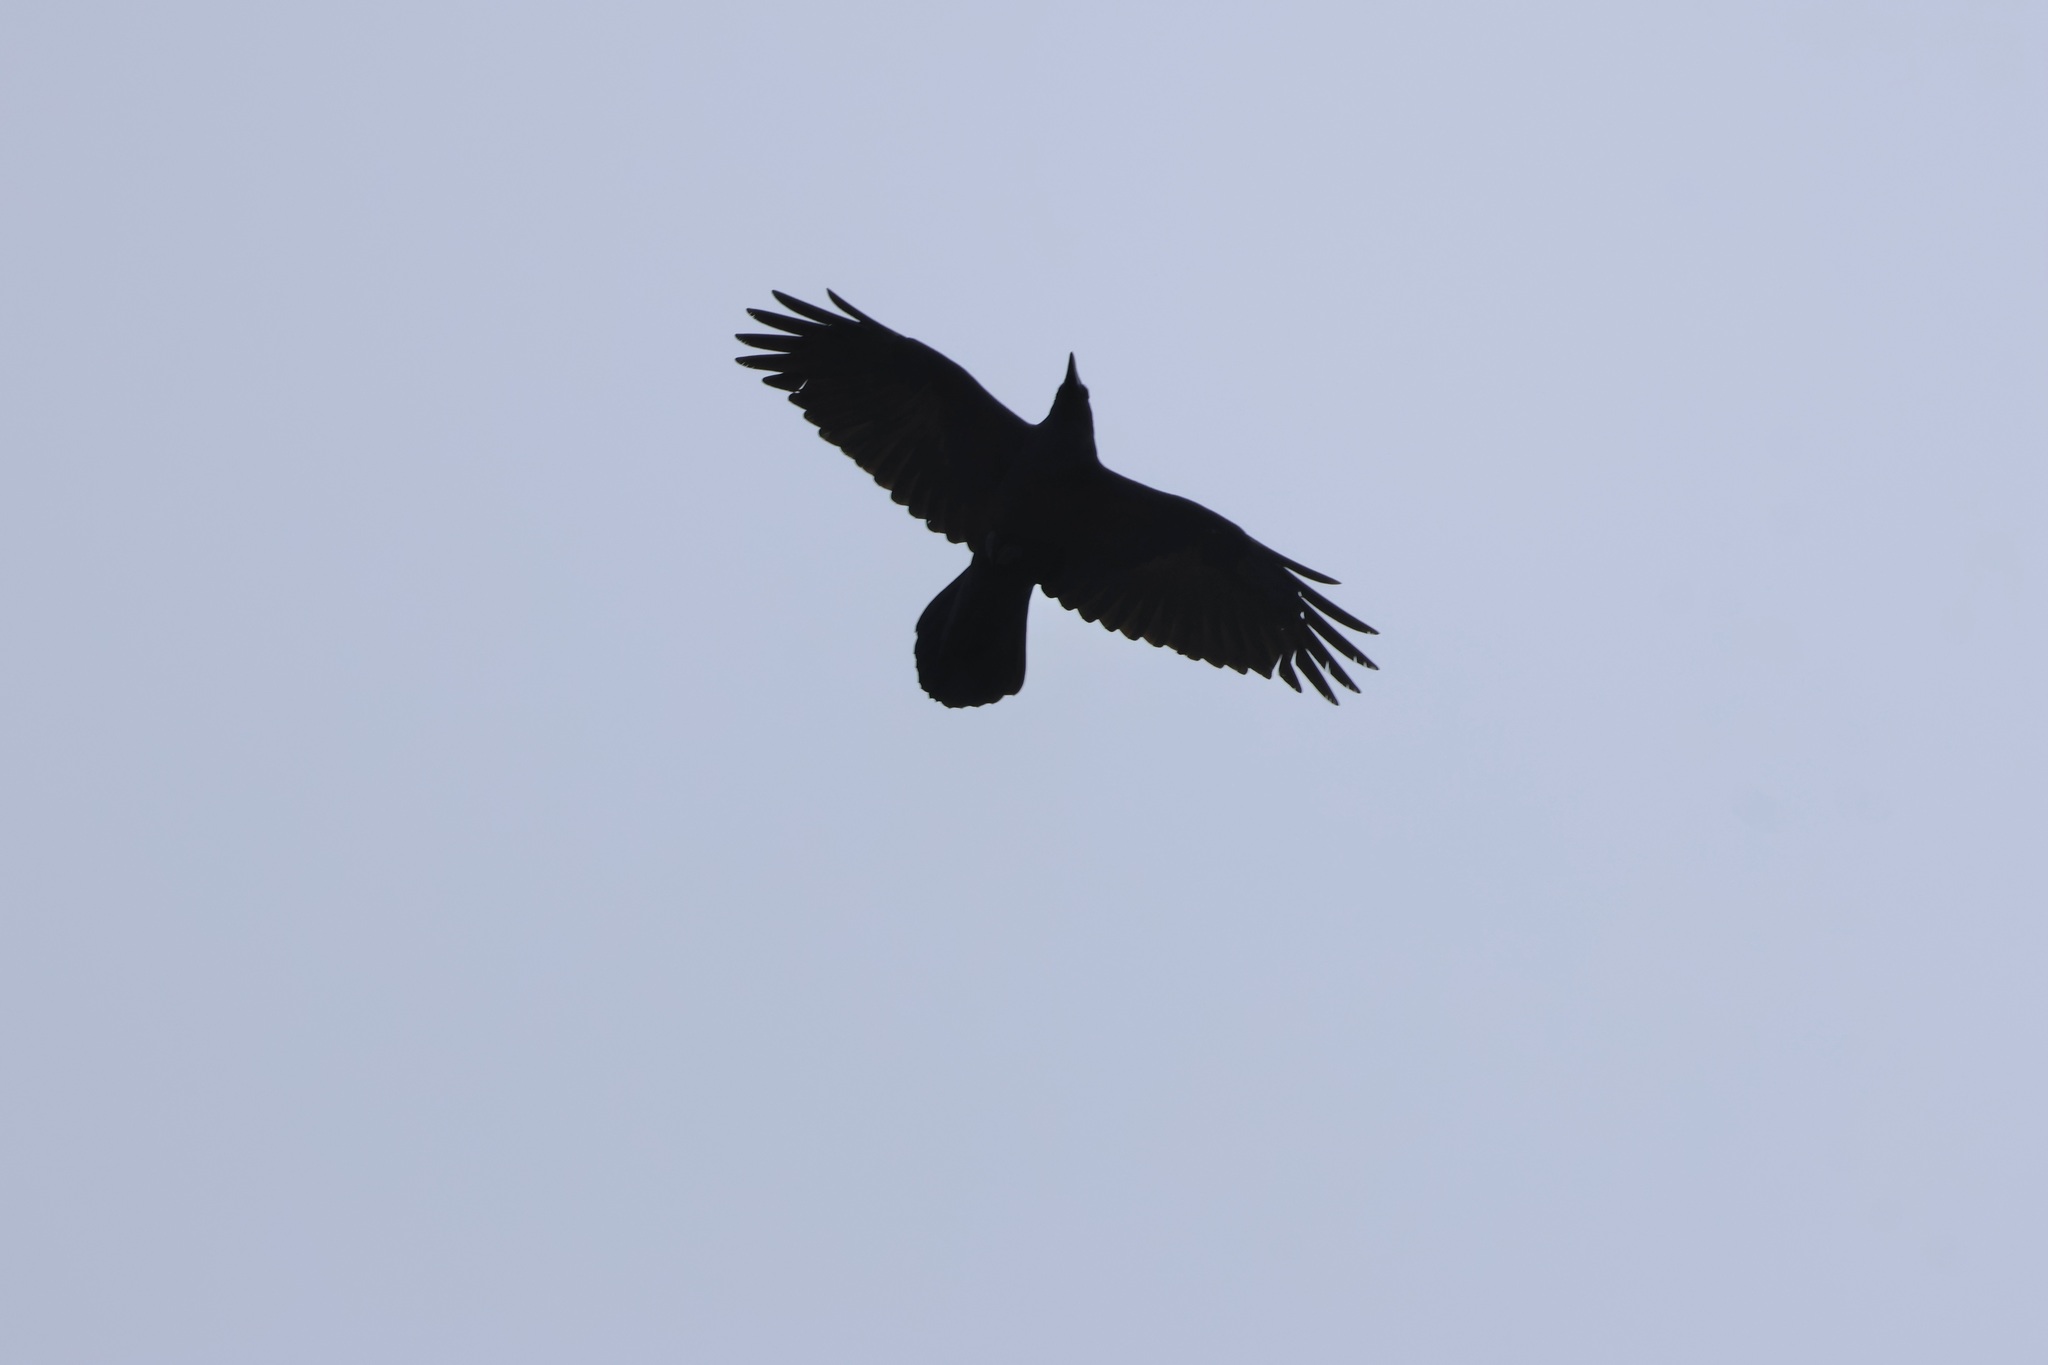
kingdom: Animalia
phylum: Chordata
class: Aves
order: Passeriformes
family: Corvidae
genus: Corvus
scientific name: Corvus corax
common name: Common raven
